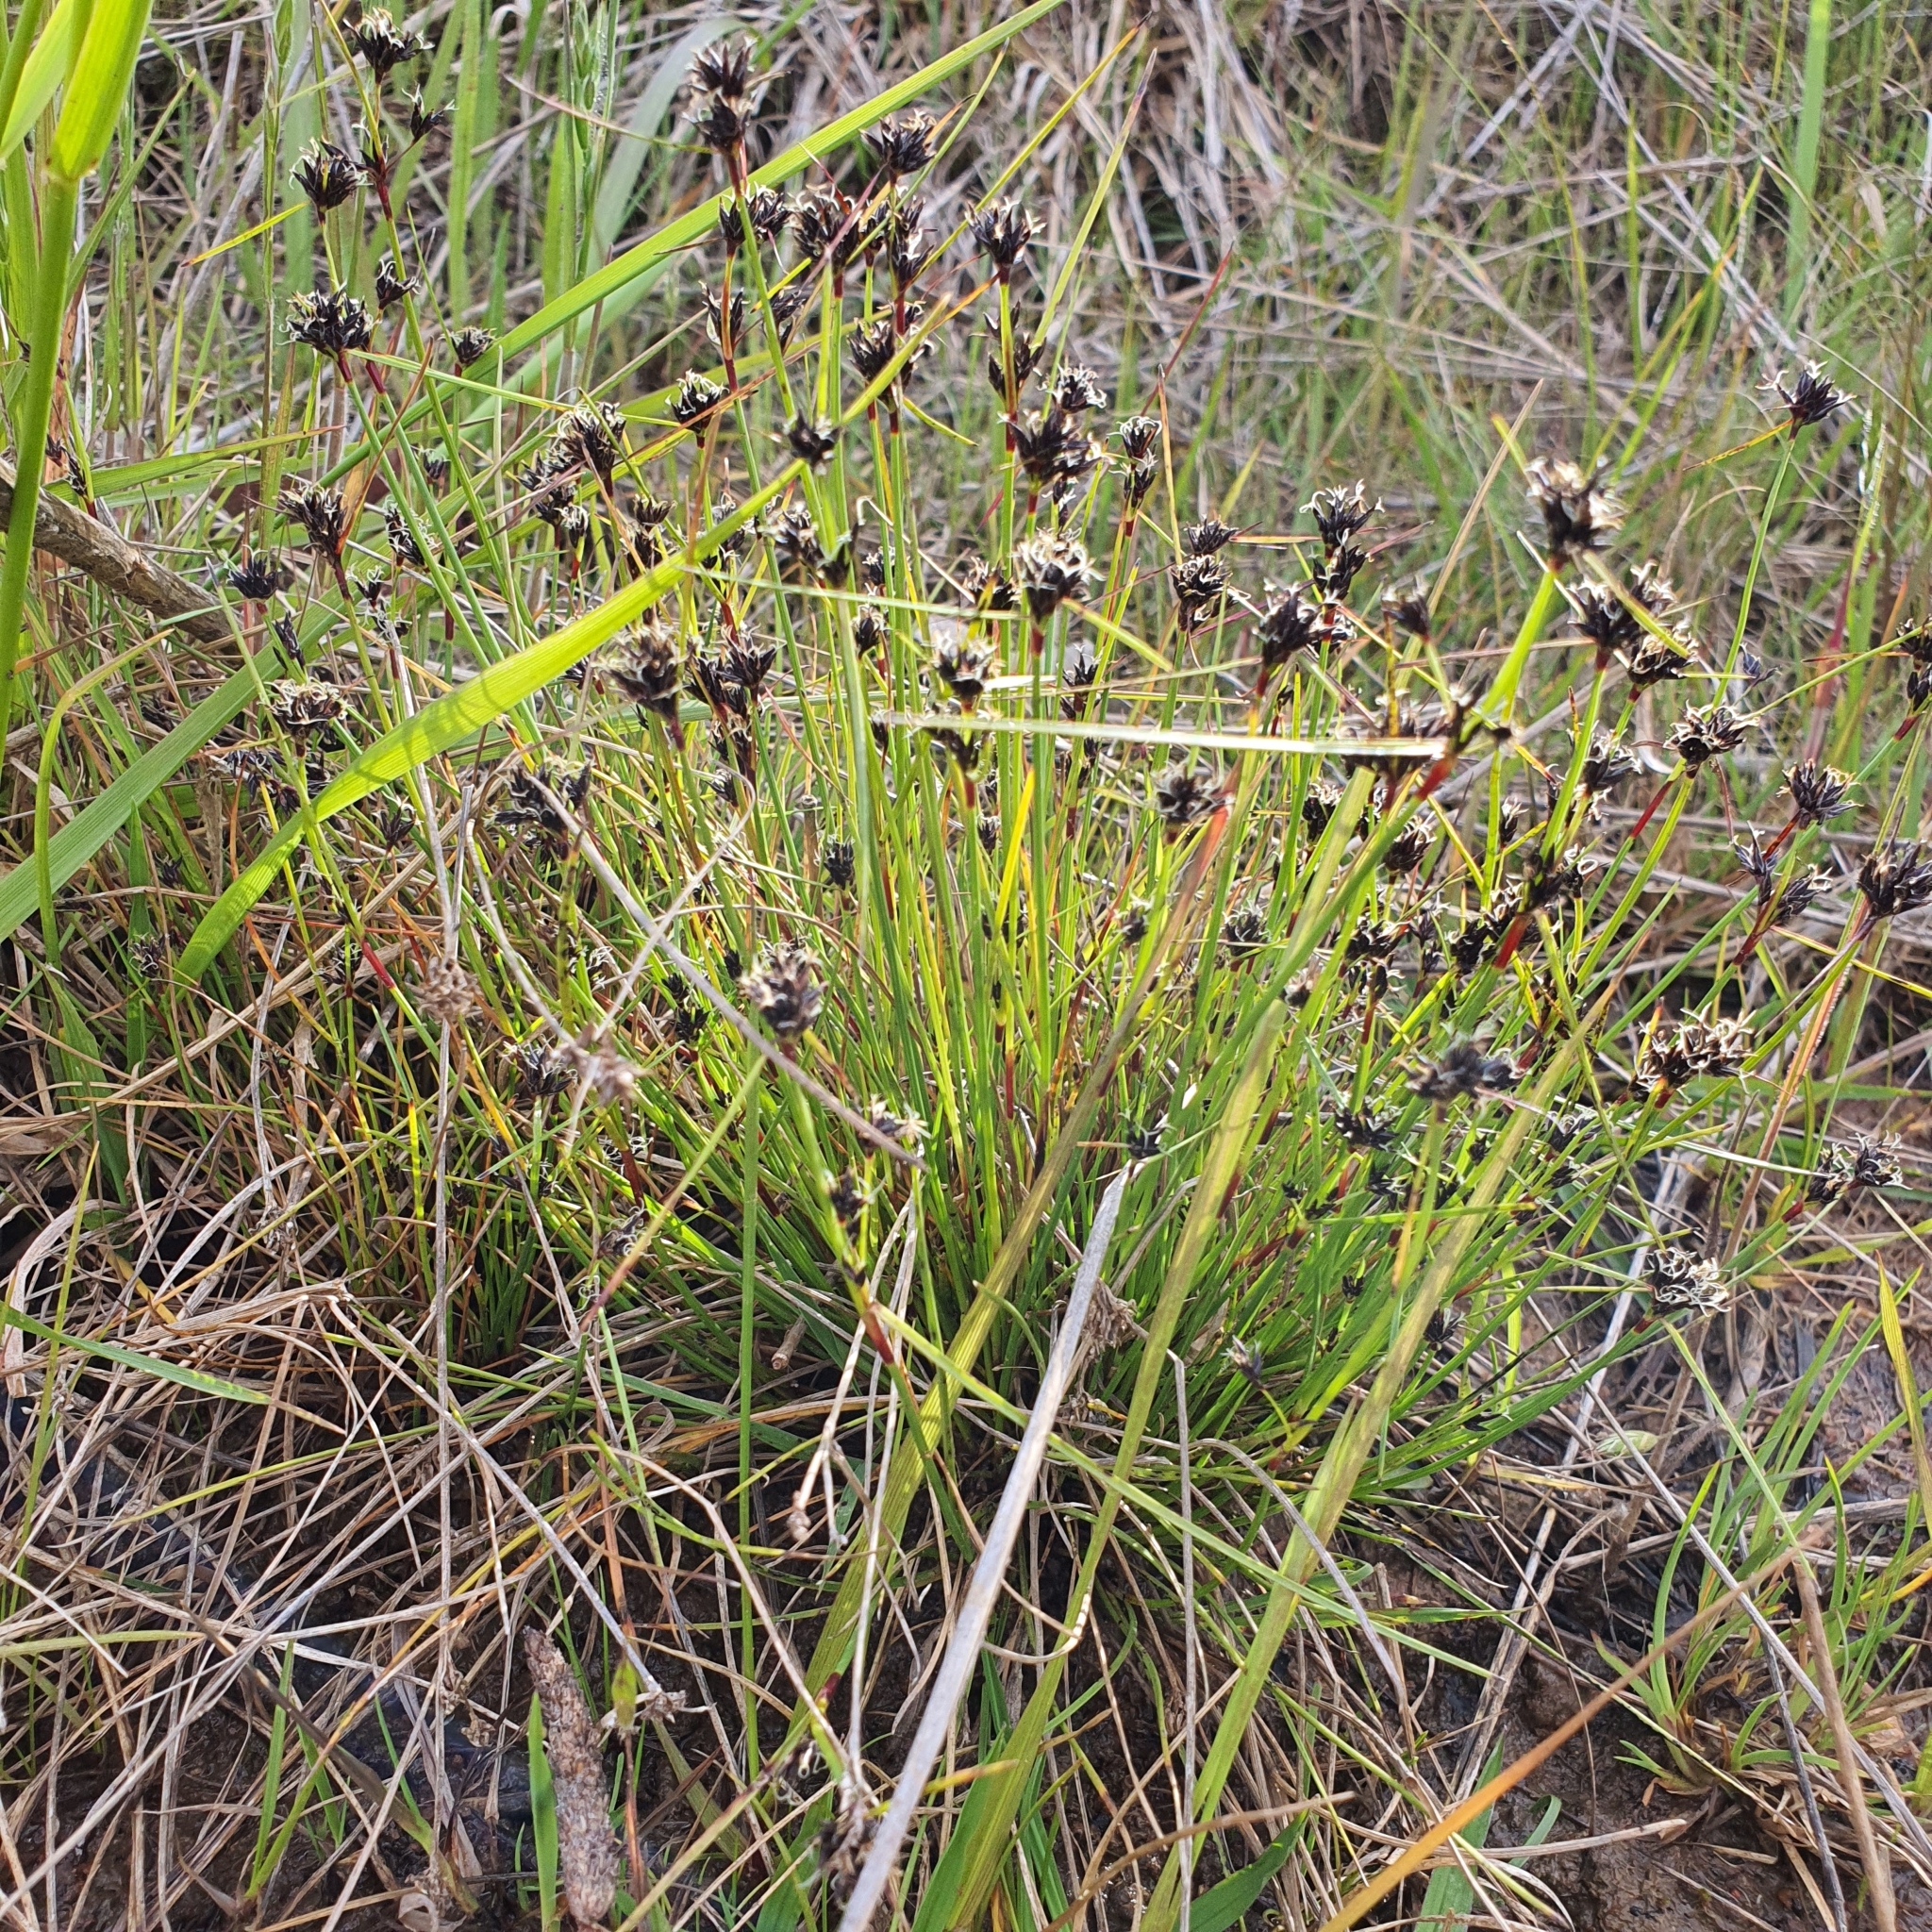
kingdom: Plantae
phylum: Tracheophyta
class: Liliopsida
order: Poales
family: Cyperaceae
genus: Schoenus
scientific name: Schoenus apogon
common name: Smooth bogrush
